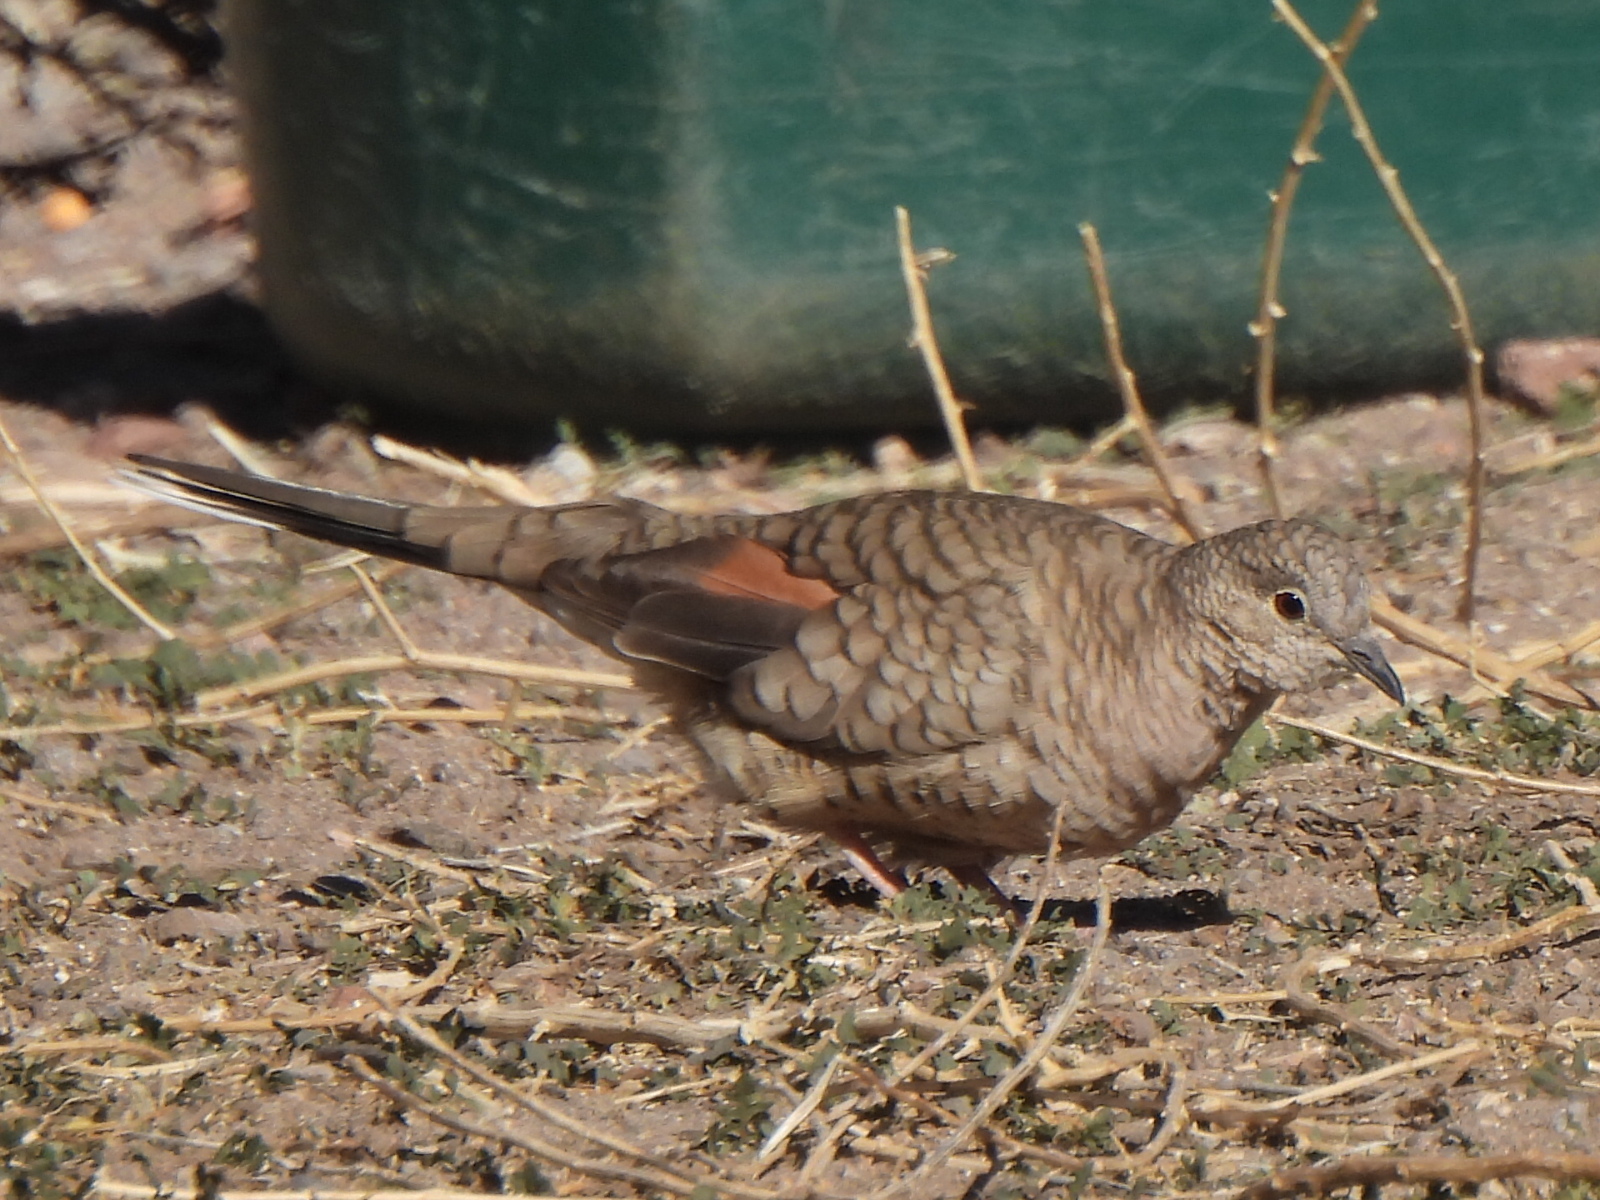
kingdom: Animalia
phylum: Chordata
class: Aves
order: Columbiformes
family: Columbidae
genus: Columbina
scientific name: Columbina inca
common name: Inca dove
